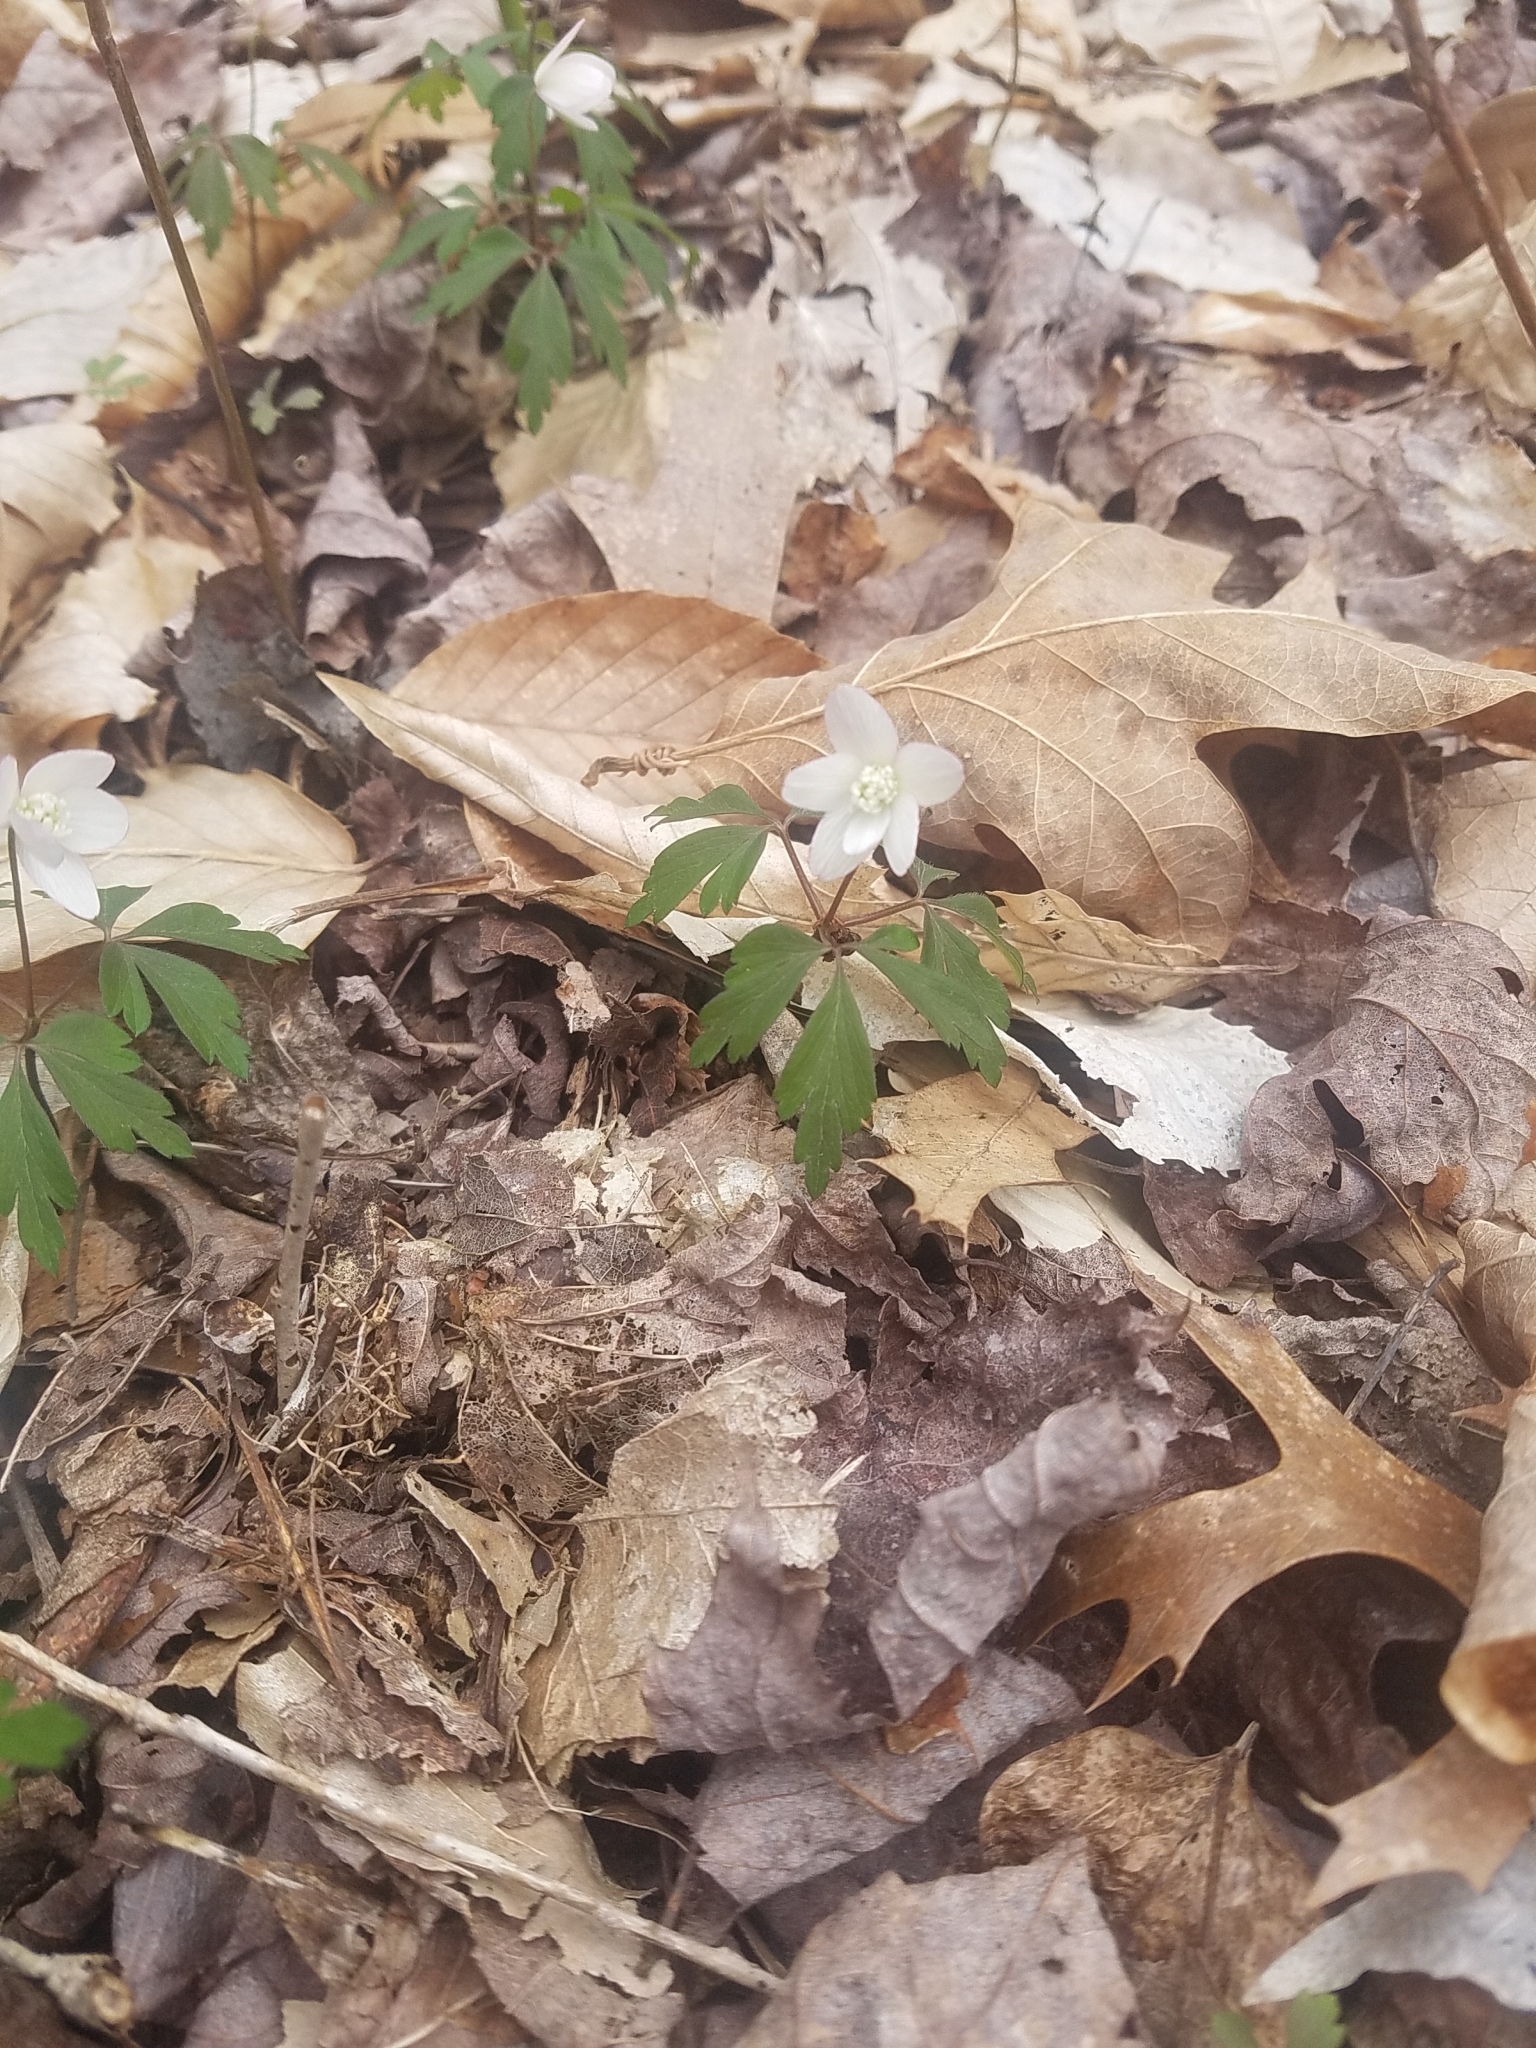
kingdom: Plantae
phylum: Tracheophyta
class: Magnoliopsida
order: Ranunculales
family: Ranunculaceae
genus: Anemone
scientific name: Anemone quinquefolia
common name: Wood anemone
